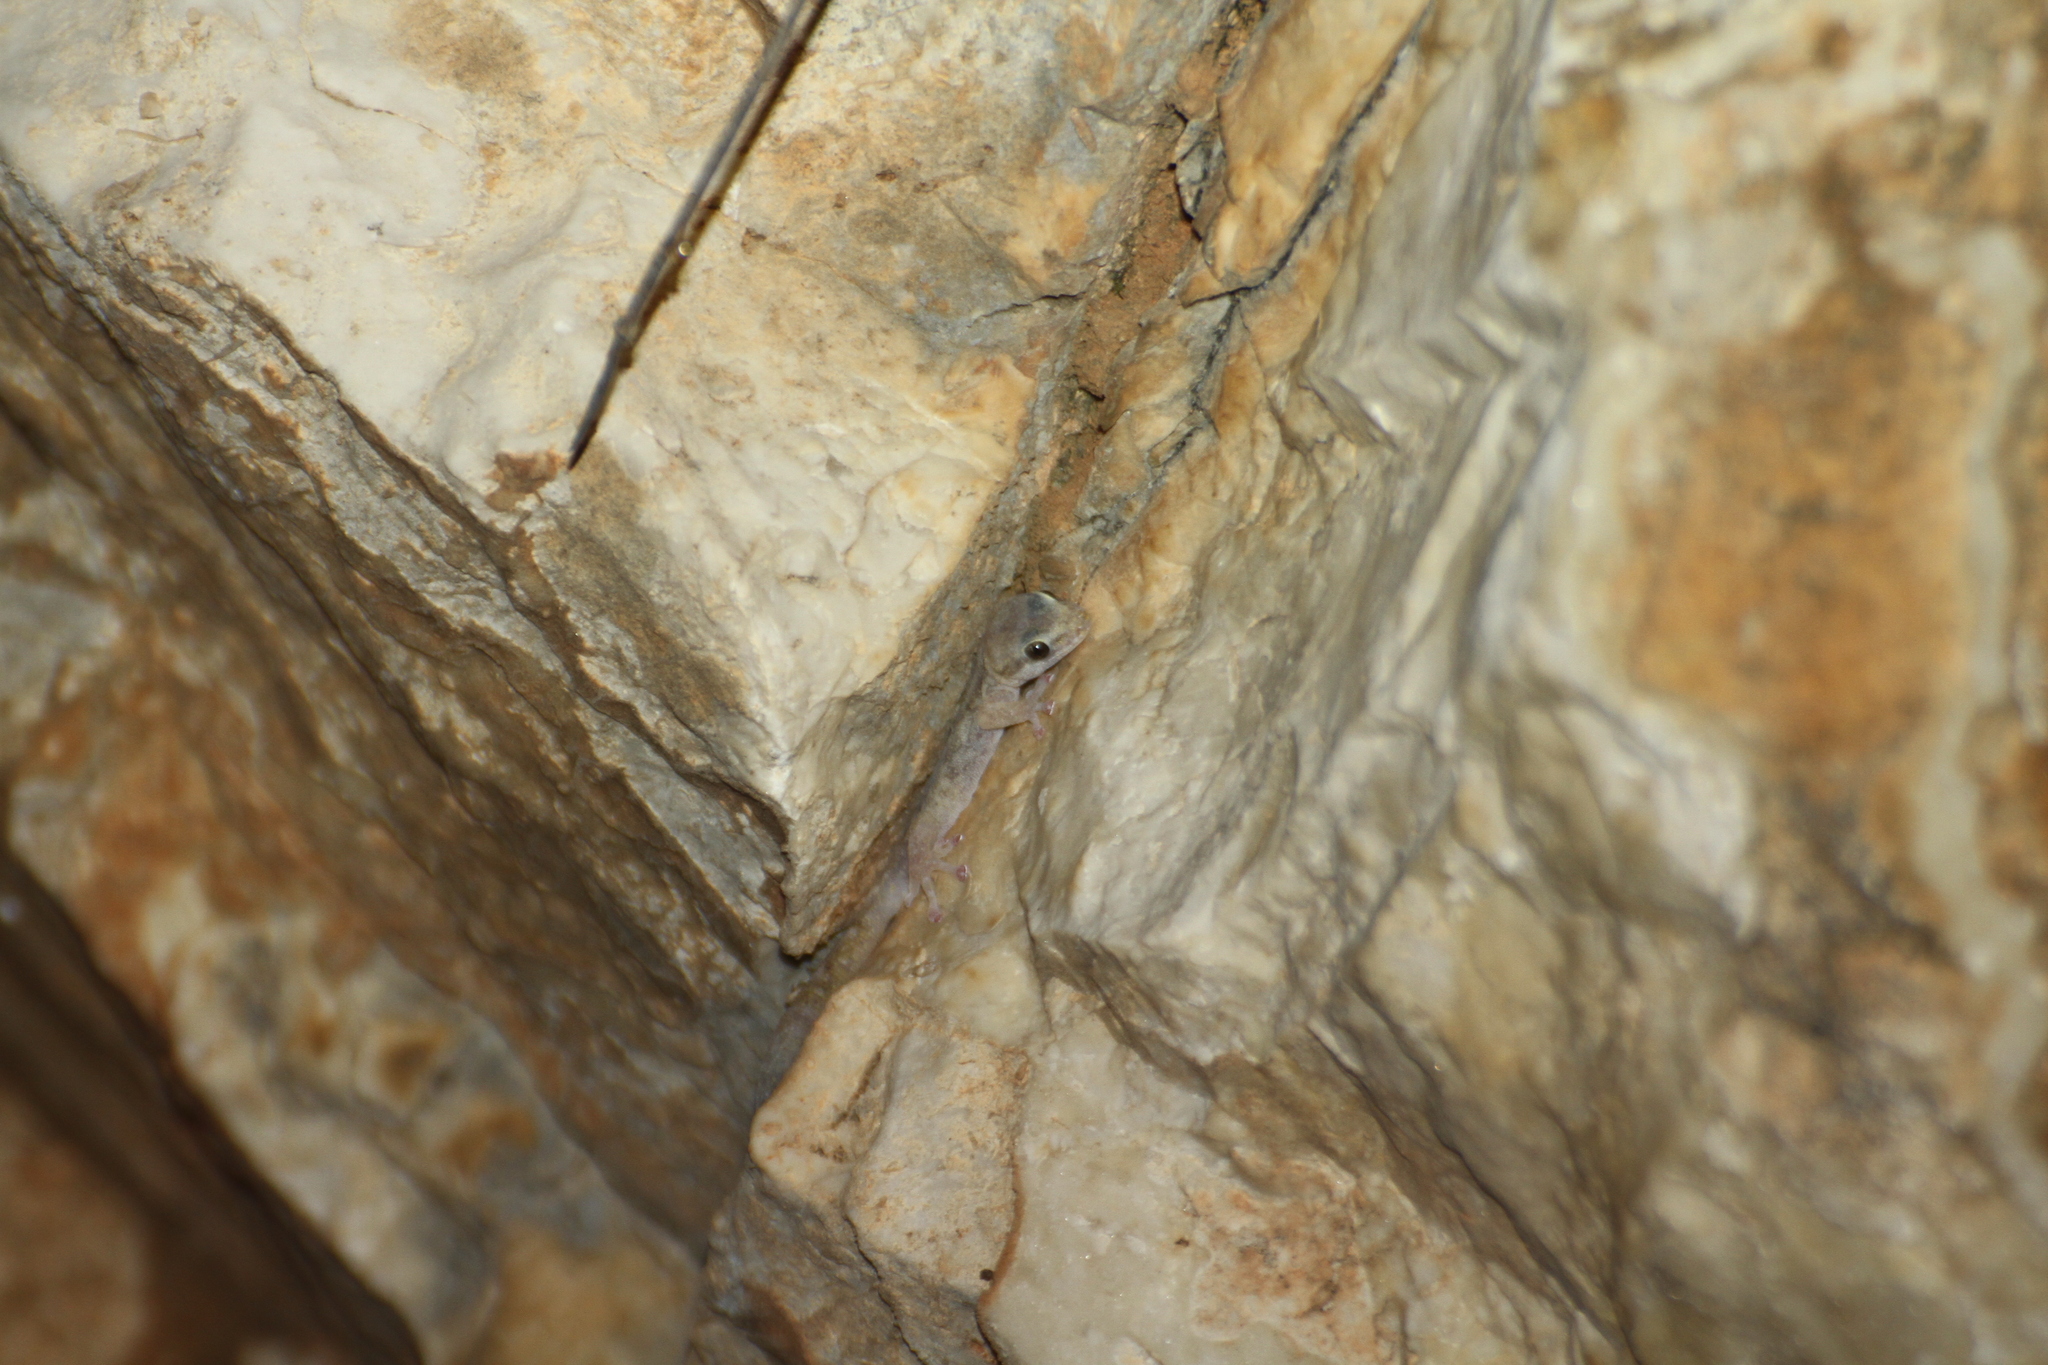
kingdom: Animalia
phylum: Chordata
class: Squamata
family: Sphaerodactylidae
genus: Euleptes
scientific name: Euleptes europaea
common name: English common name not available
